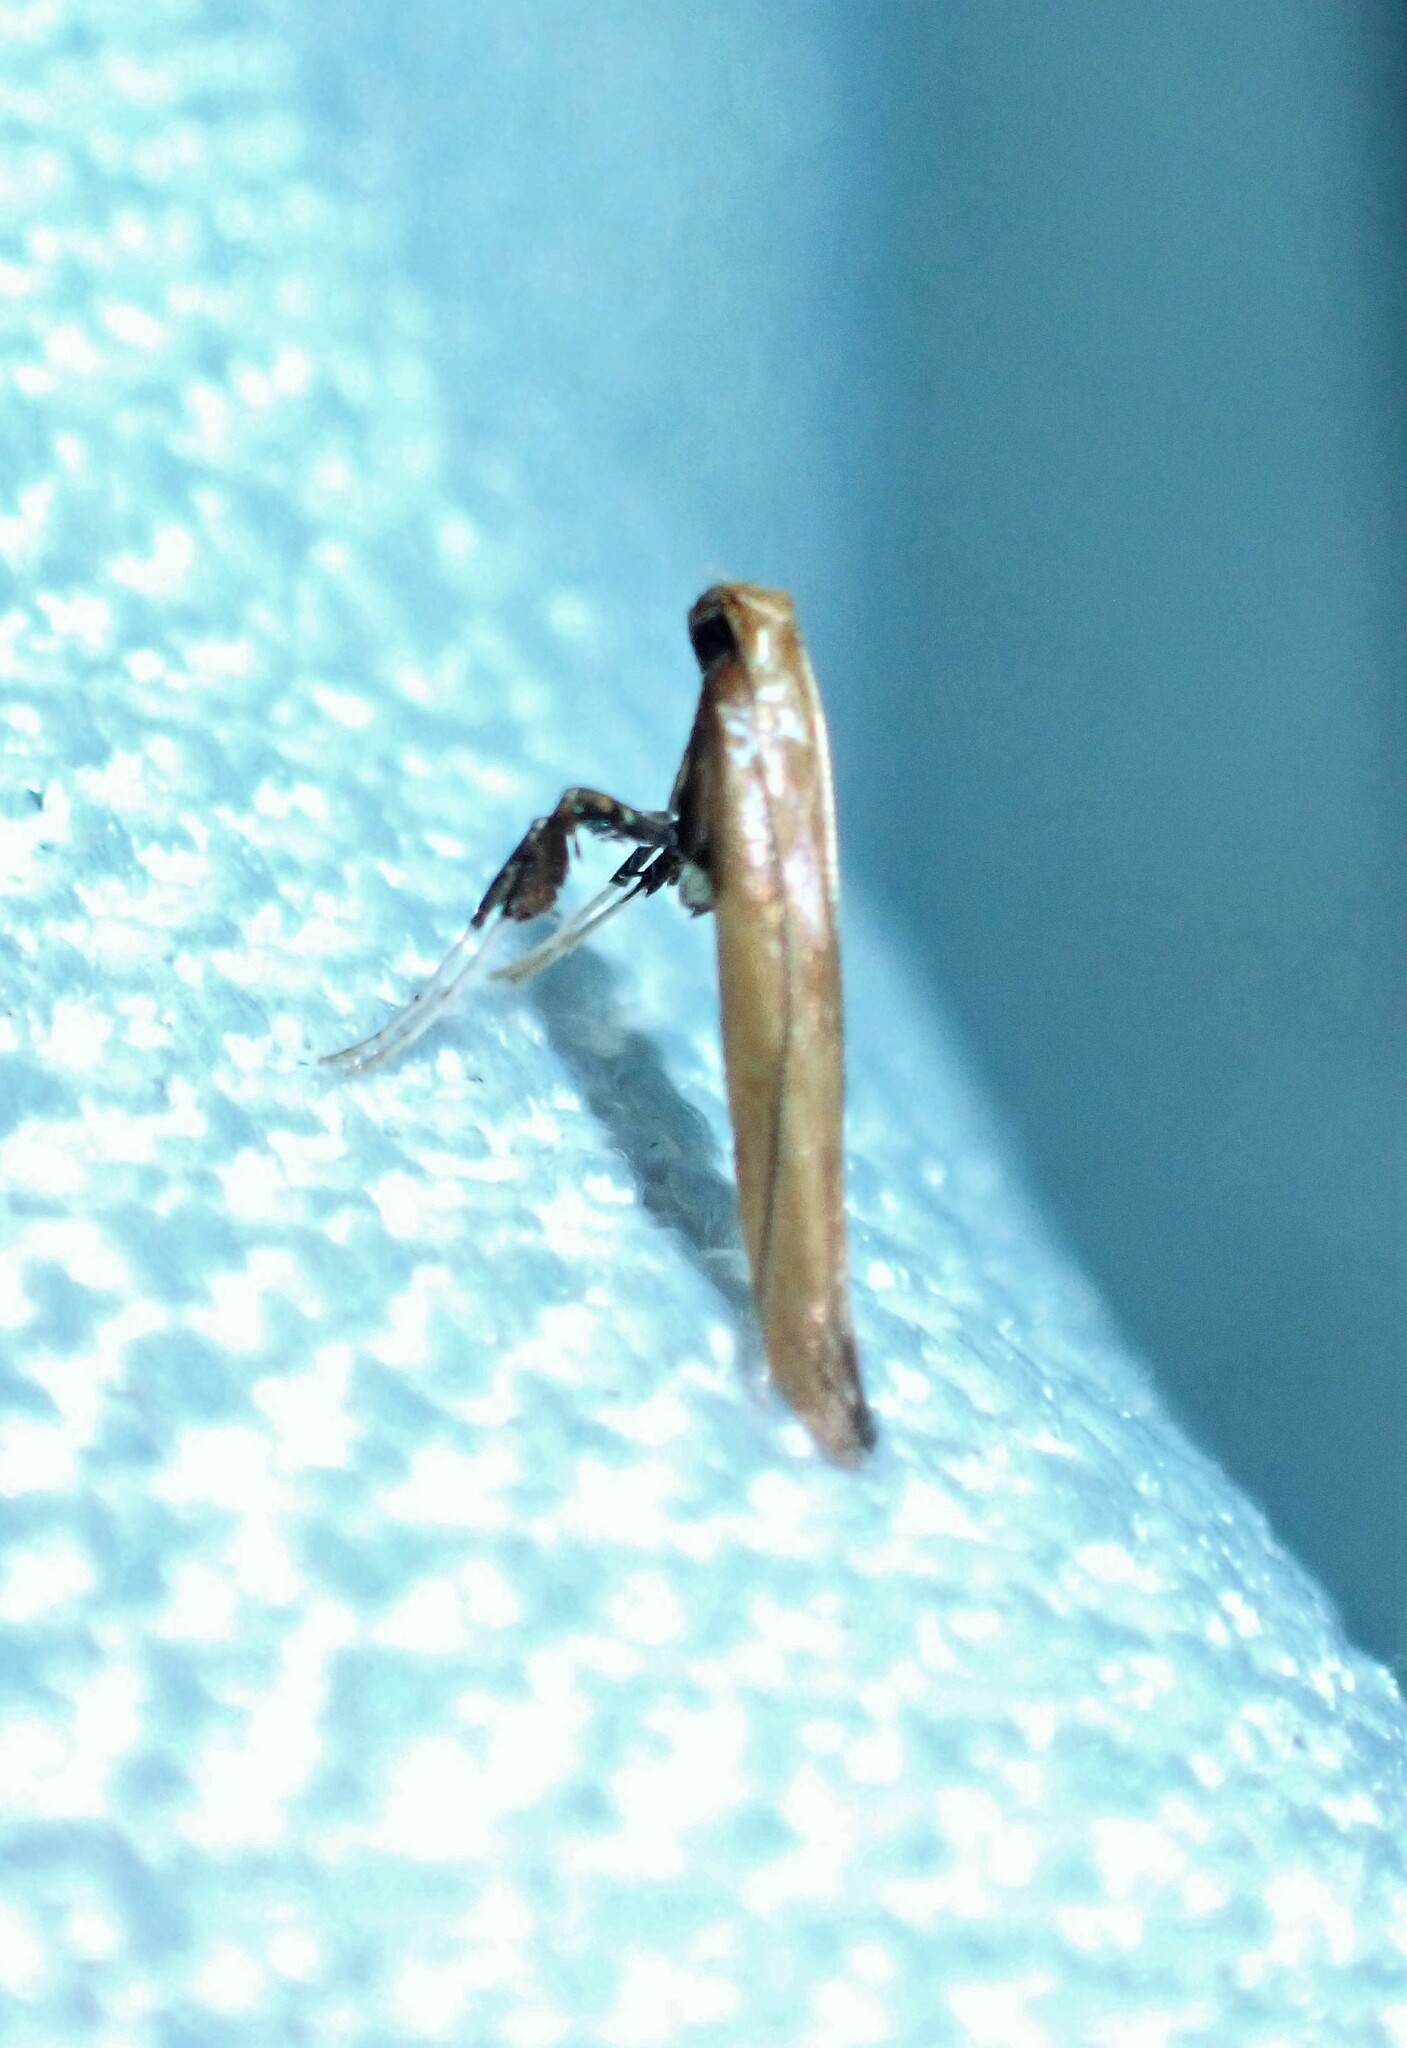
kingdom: Animalia
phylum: Arthropoda
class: Insecta
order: Lepidoptera
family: Gracillariidae
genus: Caloptilia
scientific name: Caloptilia coruscans
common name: Moth
